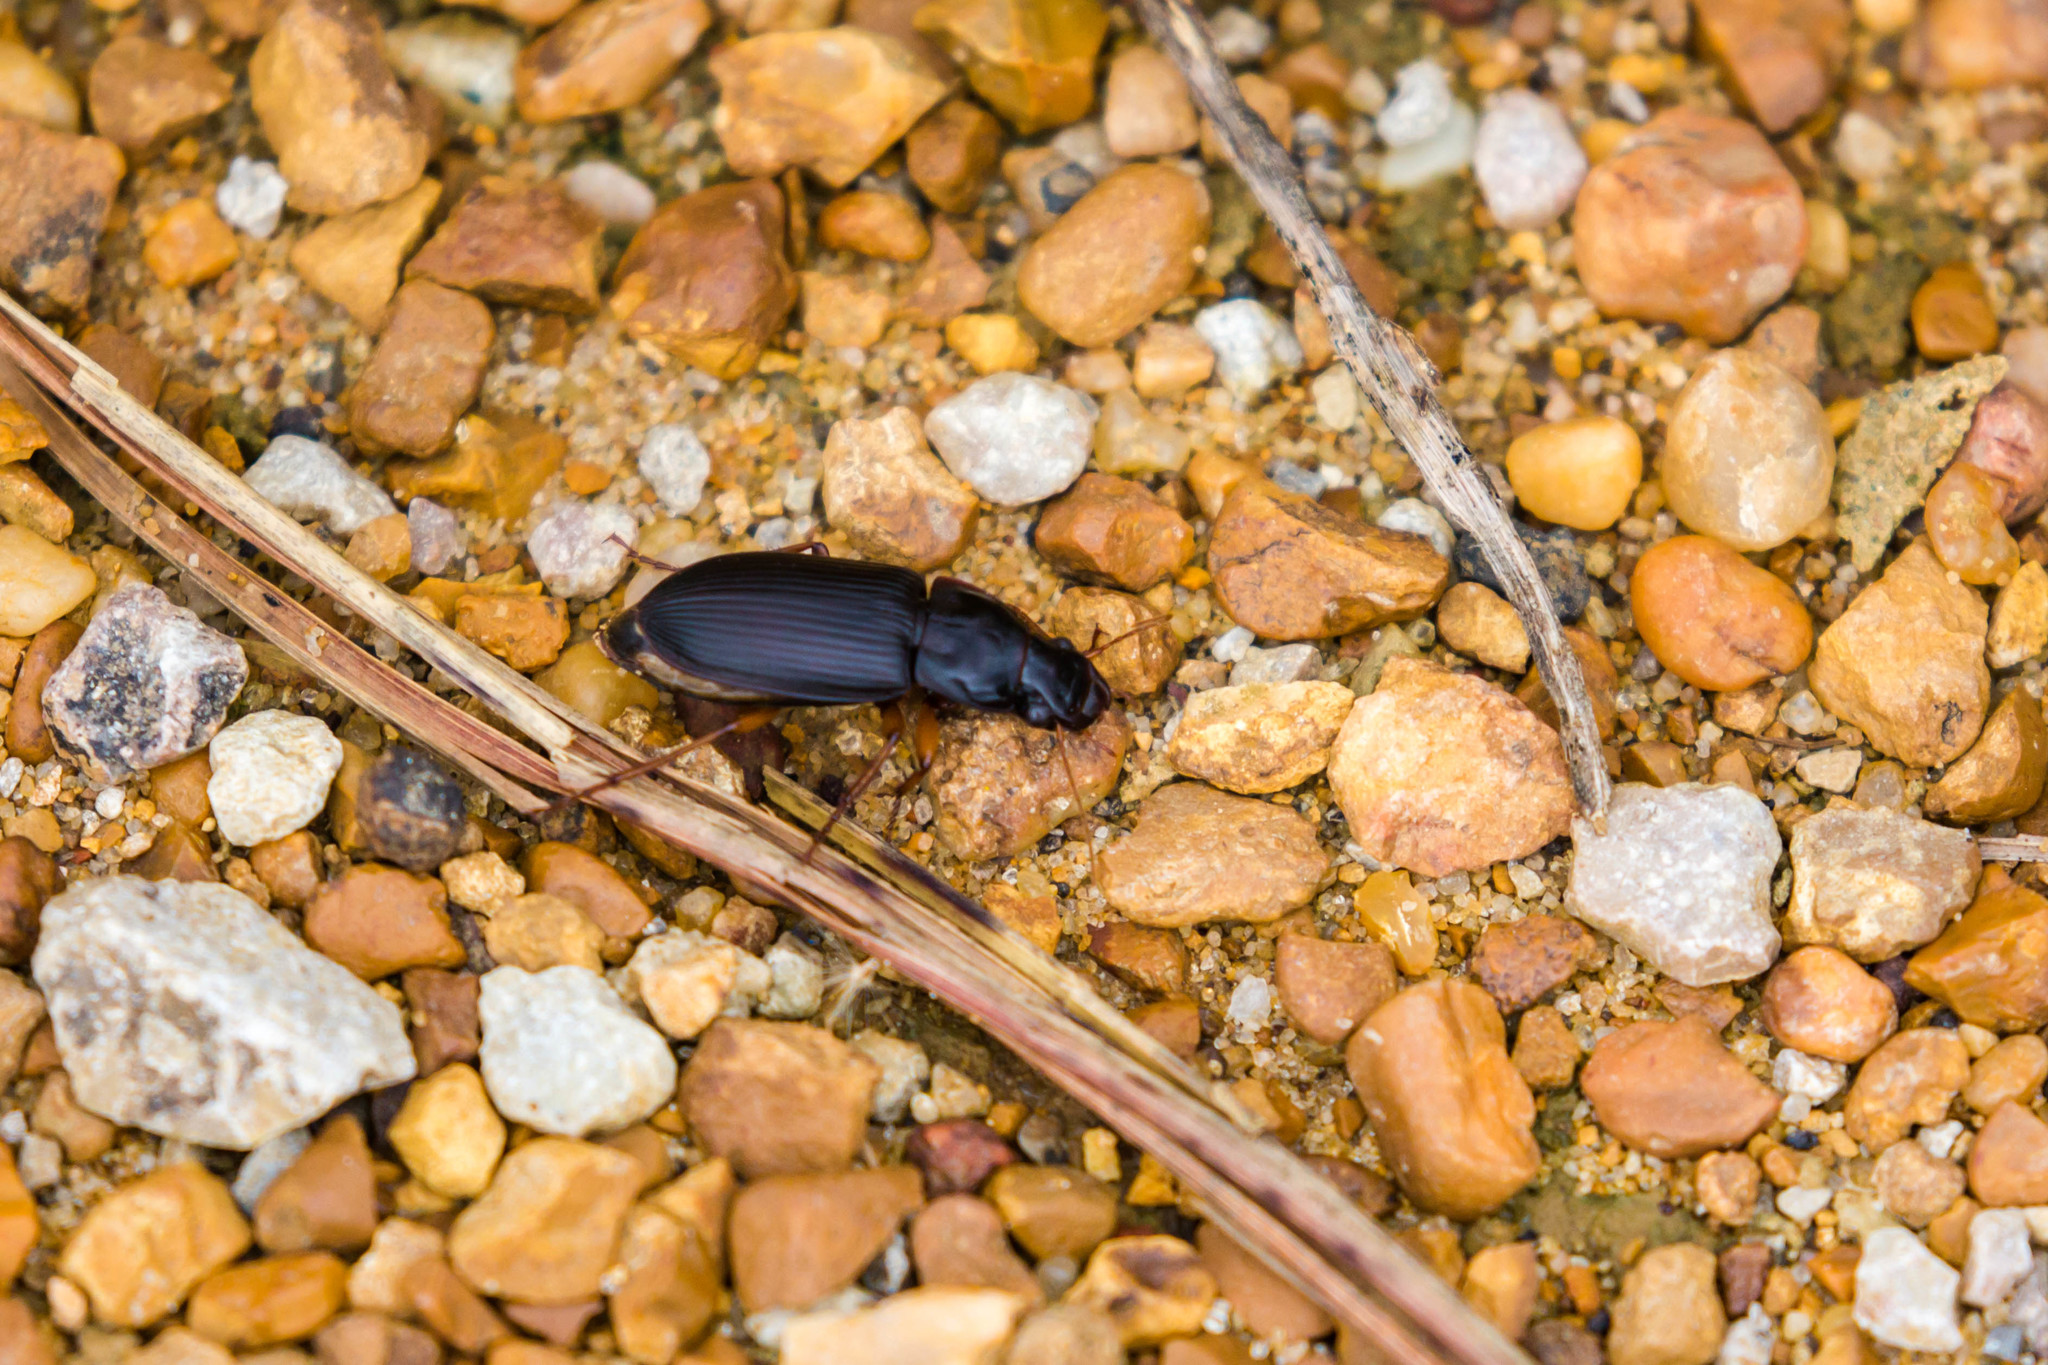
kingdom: Animalia
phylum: Arthropoda
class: Insecta
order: Coleoptera
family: Carabidae
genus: Harpalus
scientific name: Harpalus pensylvanicus
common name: Pennsylvania dingy ground beetle
